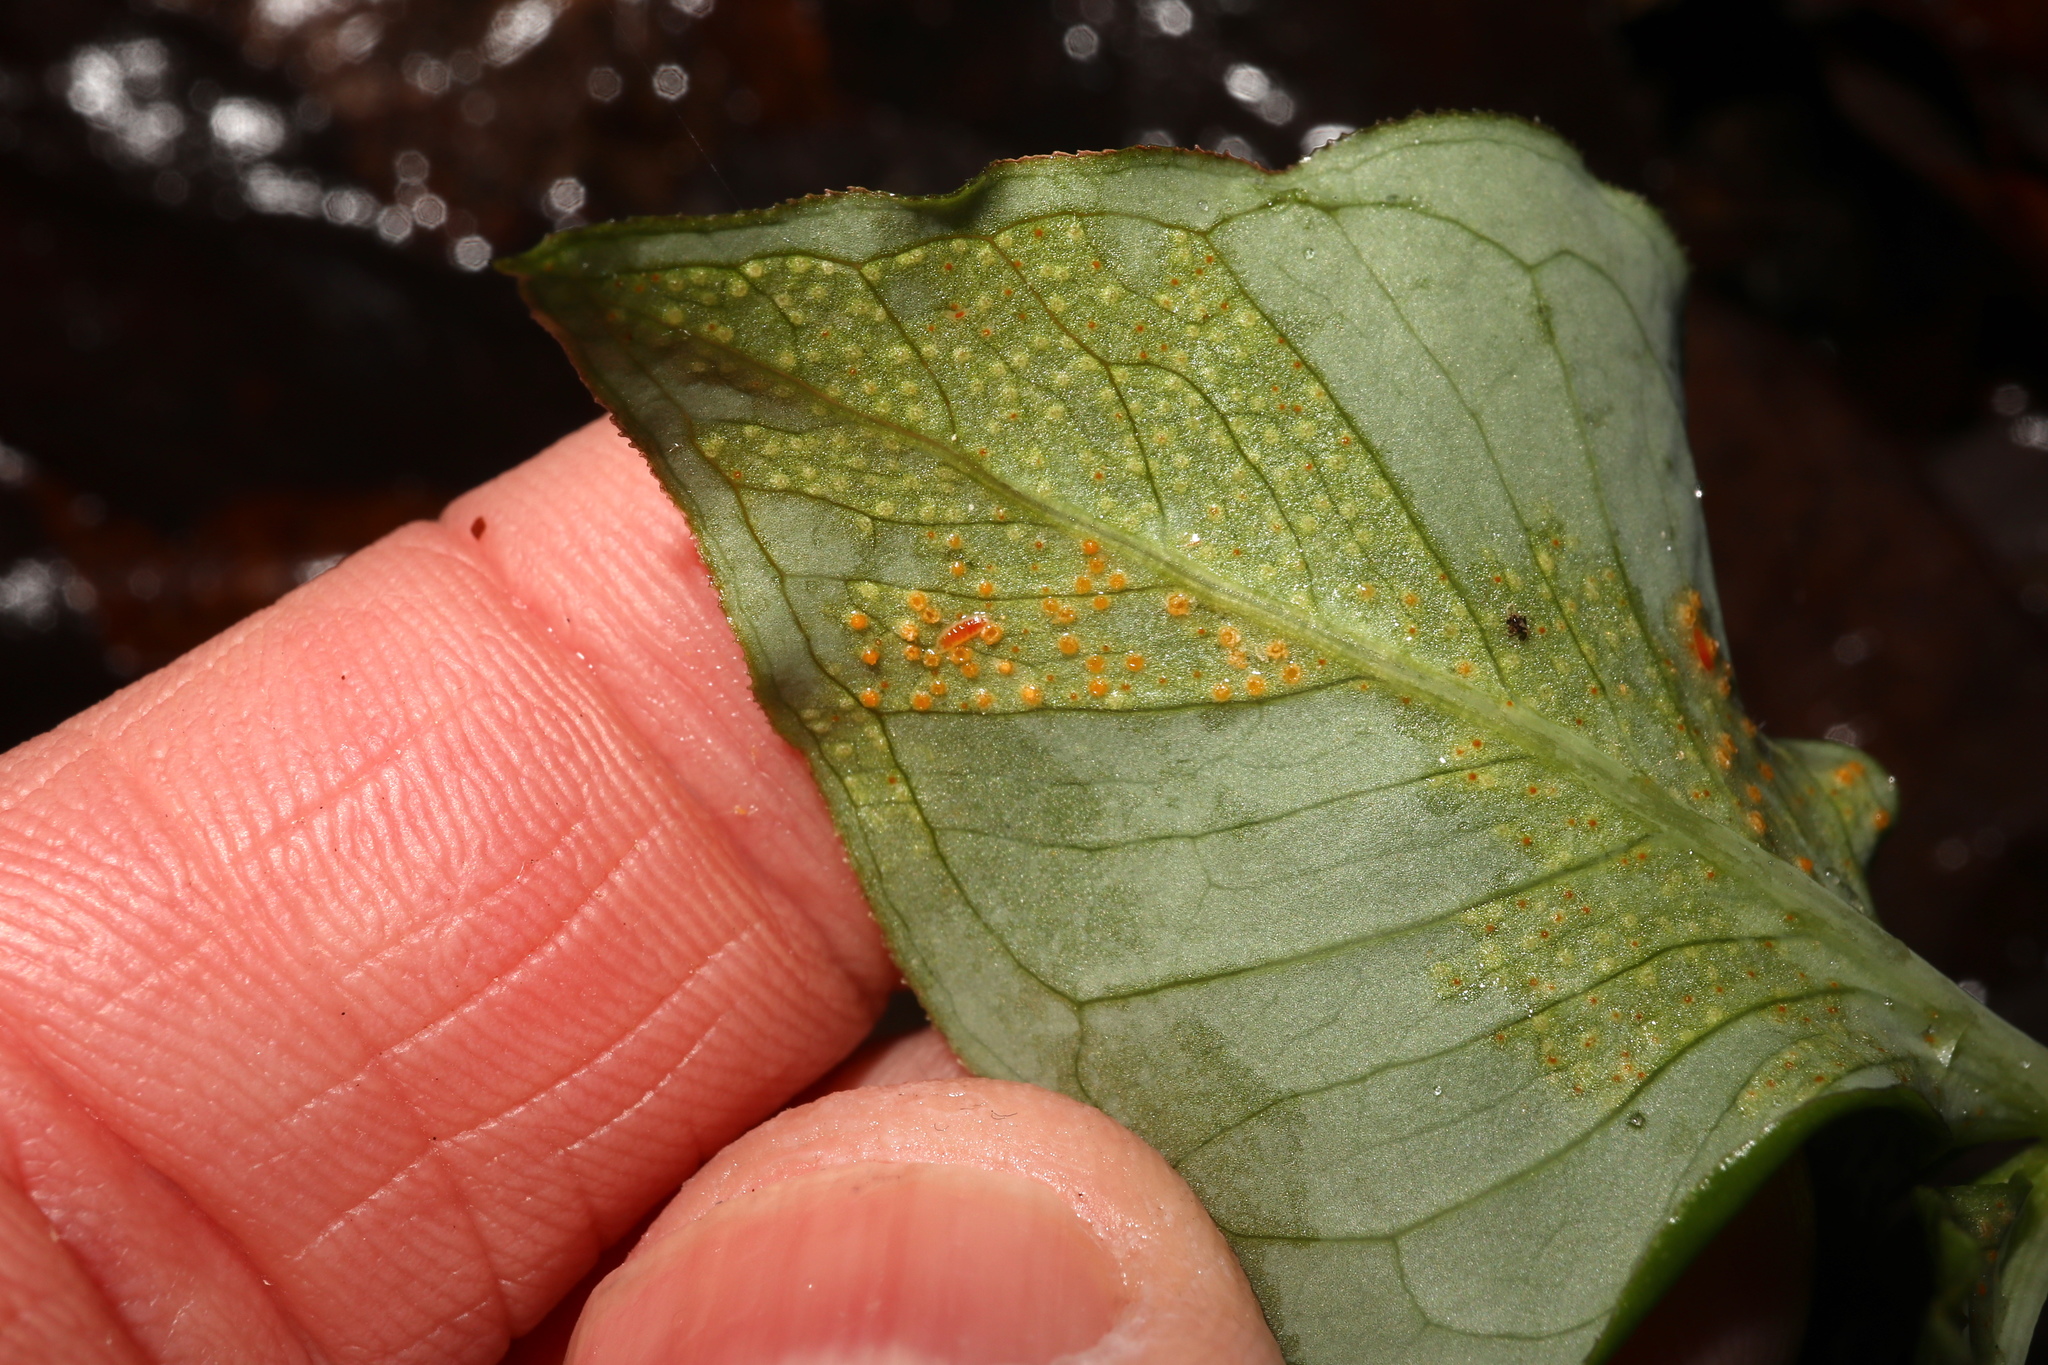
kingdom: Fungi
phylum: Basidiomycota
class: Pucciniomycetes
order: Pucciniales
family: Pucciniaceae
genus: Uromyces
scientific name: Uromyces ari-triphylli
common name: Jack-in-the-pulpit rust
